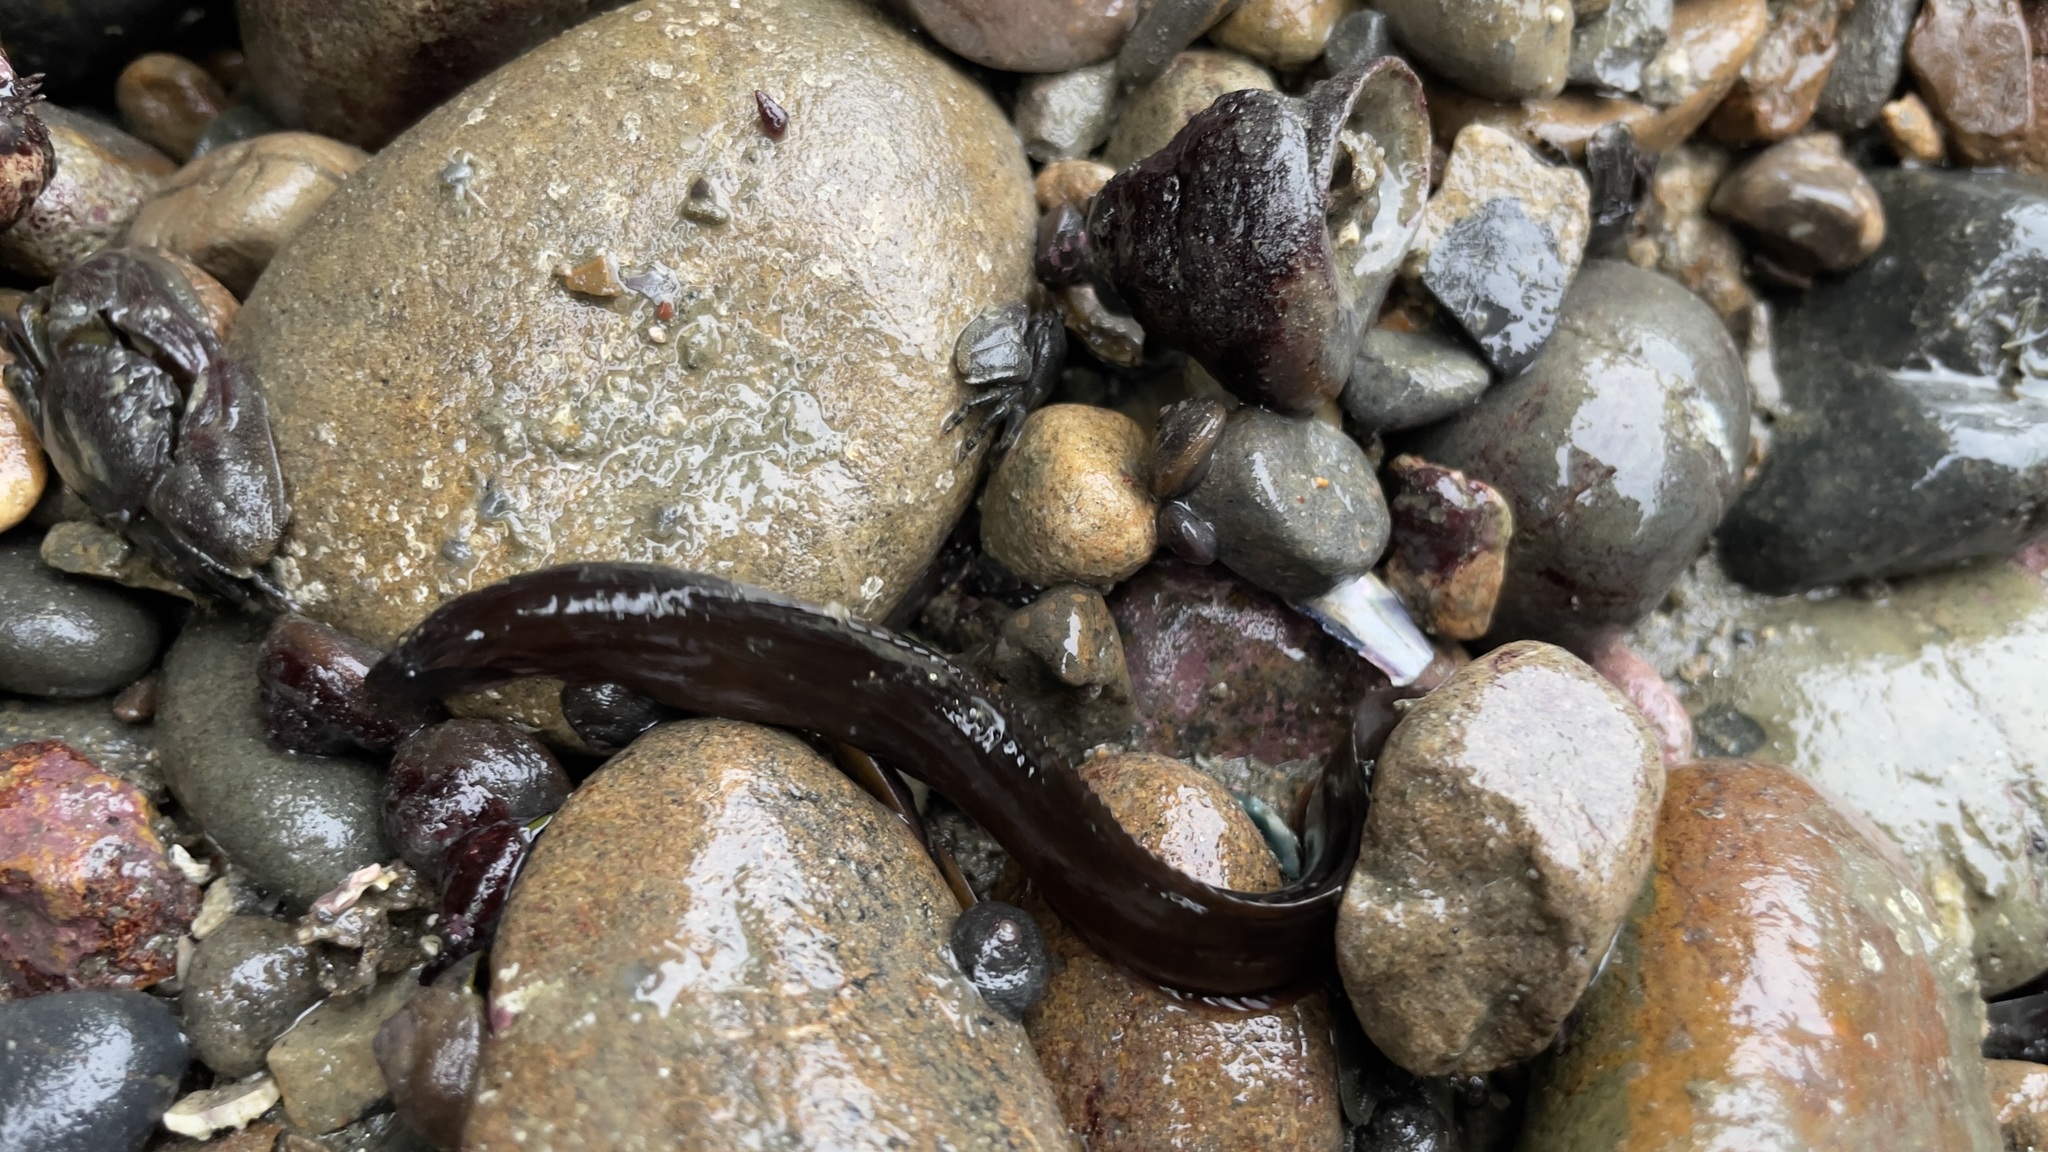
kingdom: Animalia
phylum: Chordata
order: Perciformes
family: Stichaeidae
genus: Xiphister
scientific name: Xiphister atropurpureus
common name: Black prickleback
